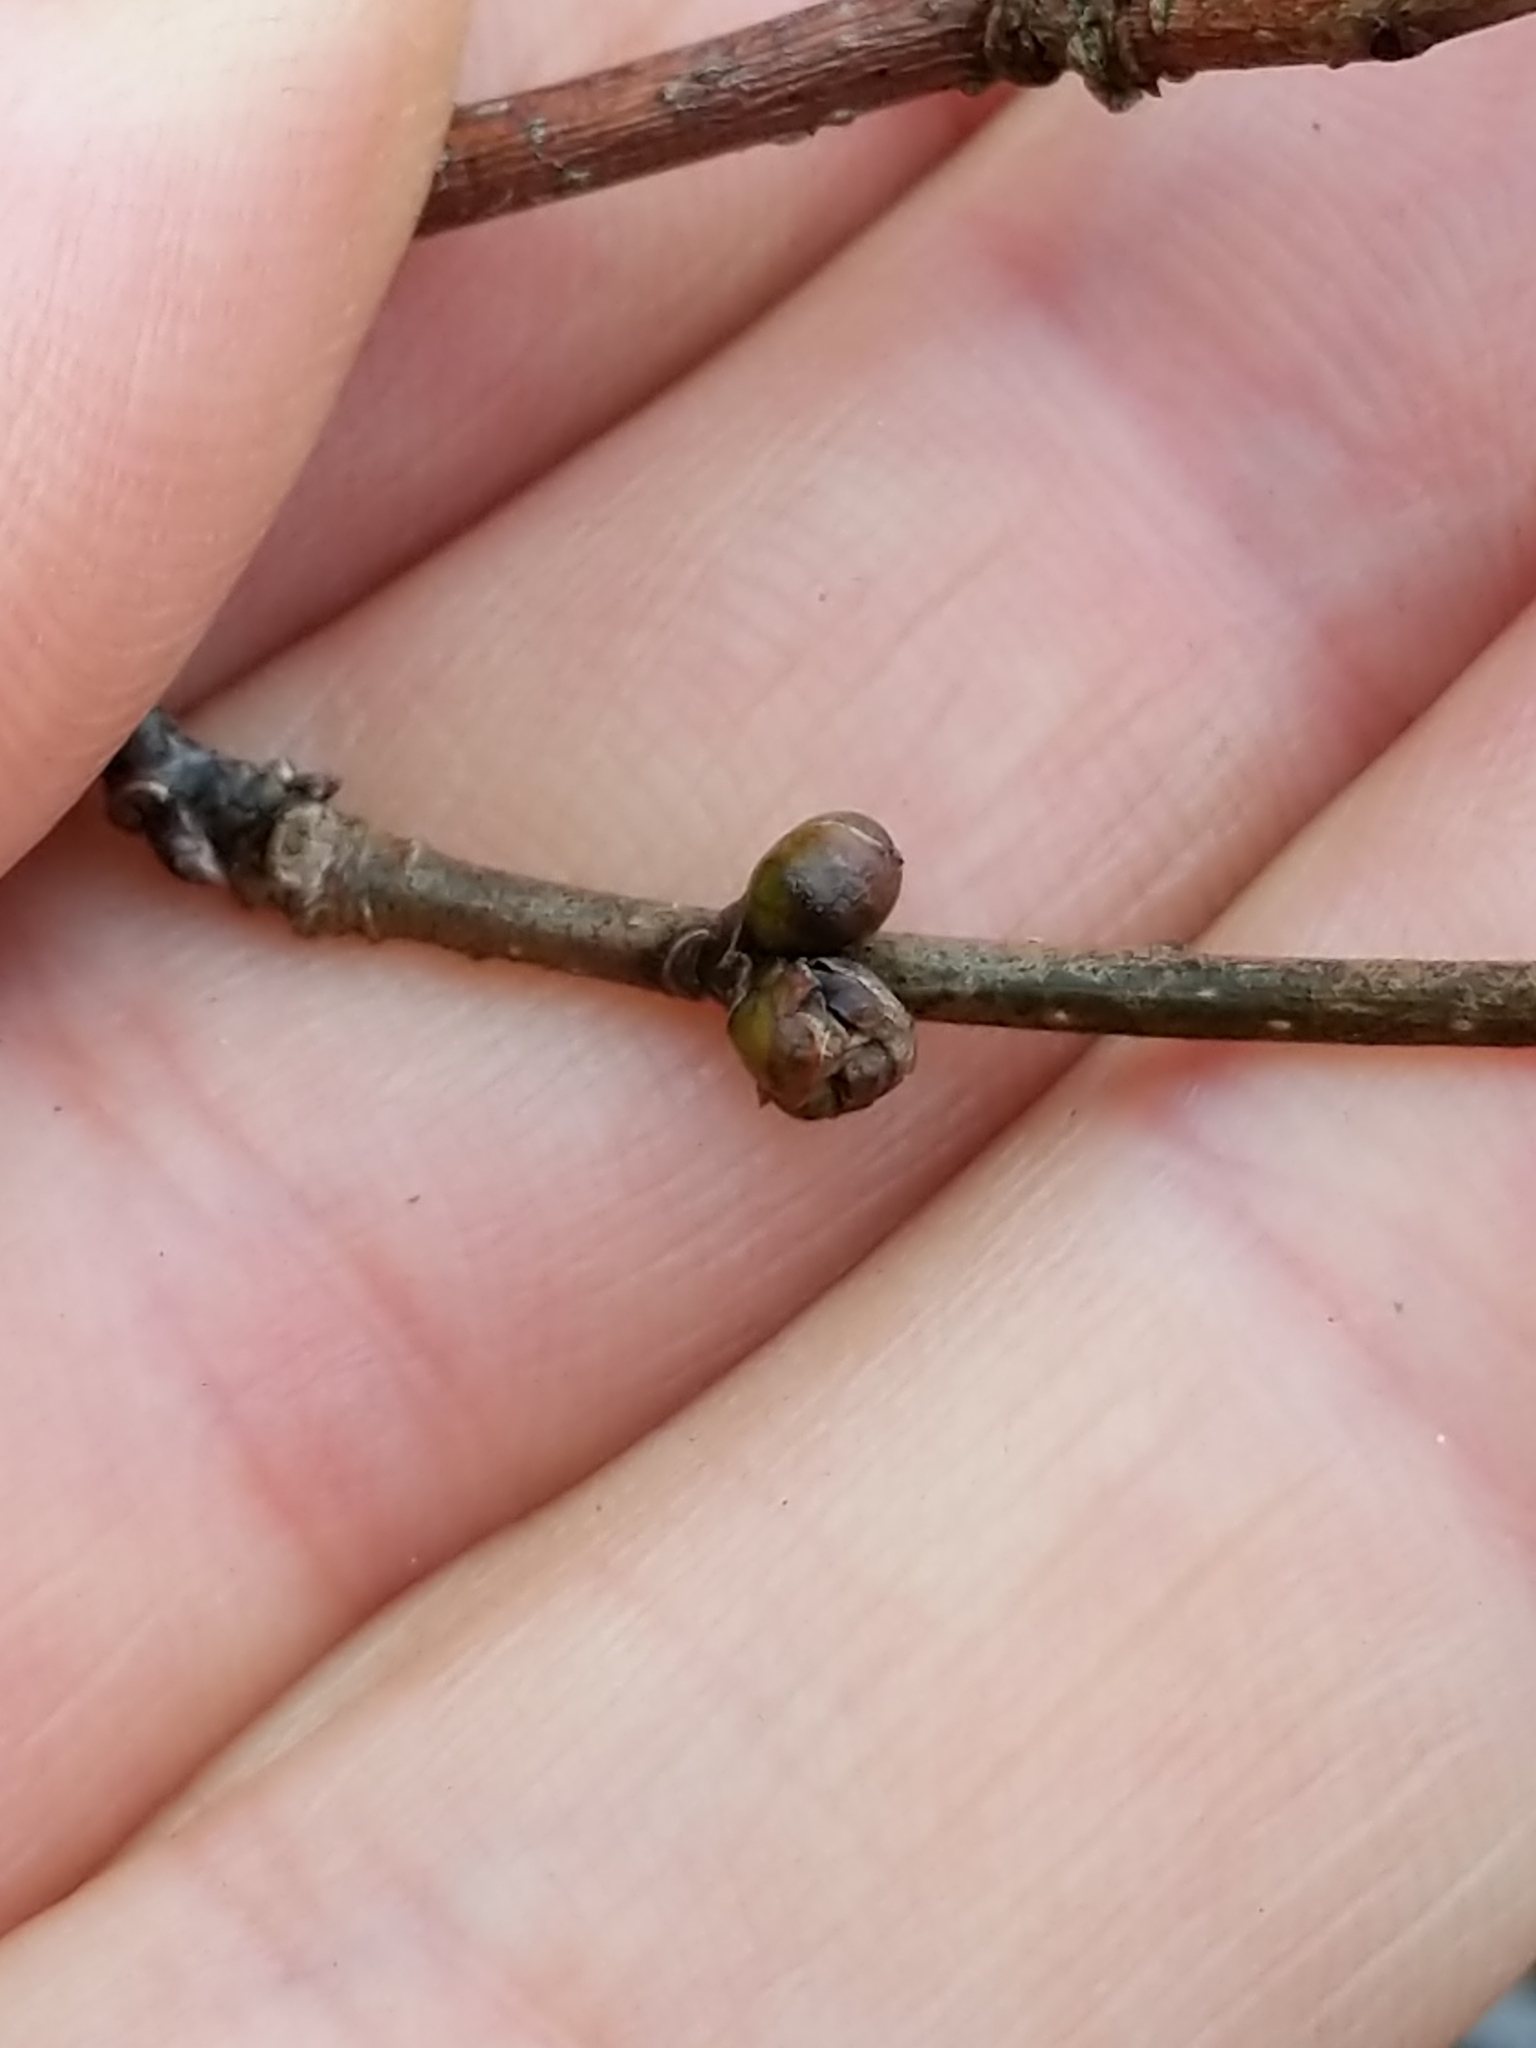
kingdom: Plantae
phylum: Tracheophyta
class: Magnoliopsida
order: Laurales
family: Lauraceae
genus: Lindera
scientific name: Lindera benzoin
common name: Spicebush
